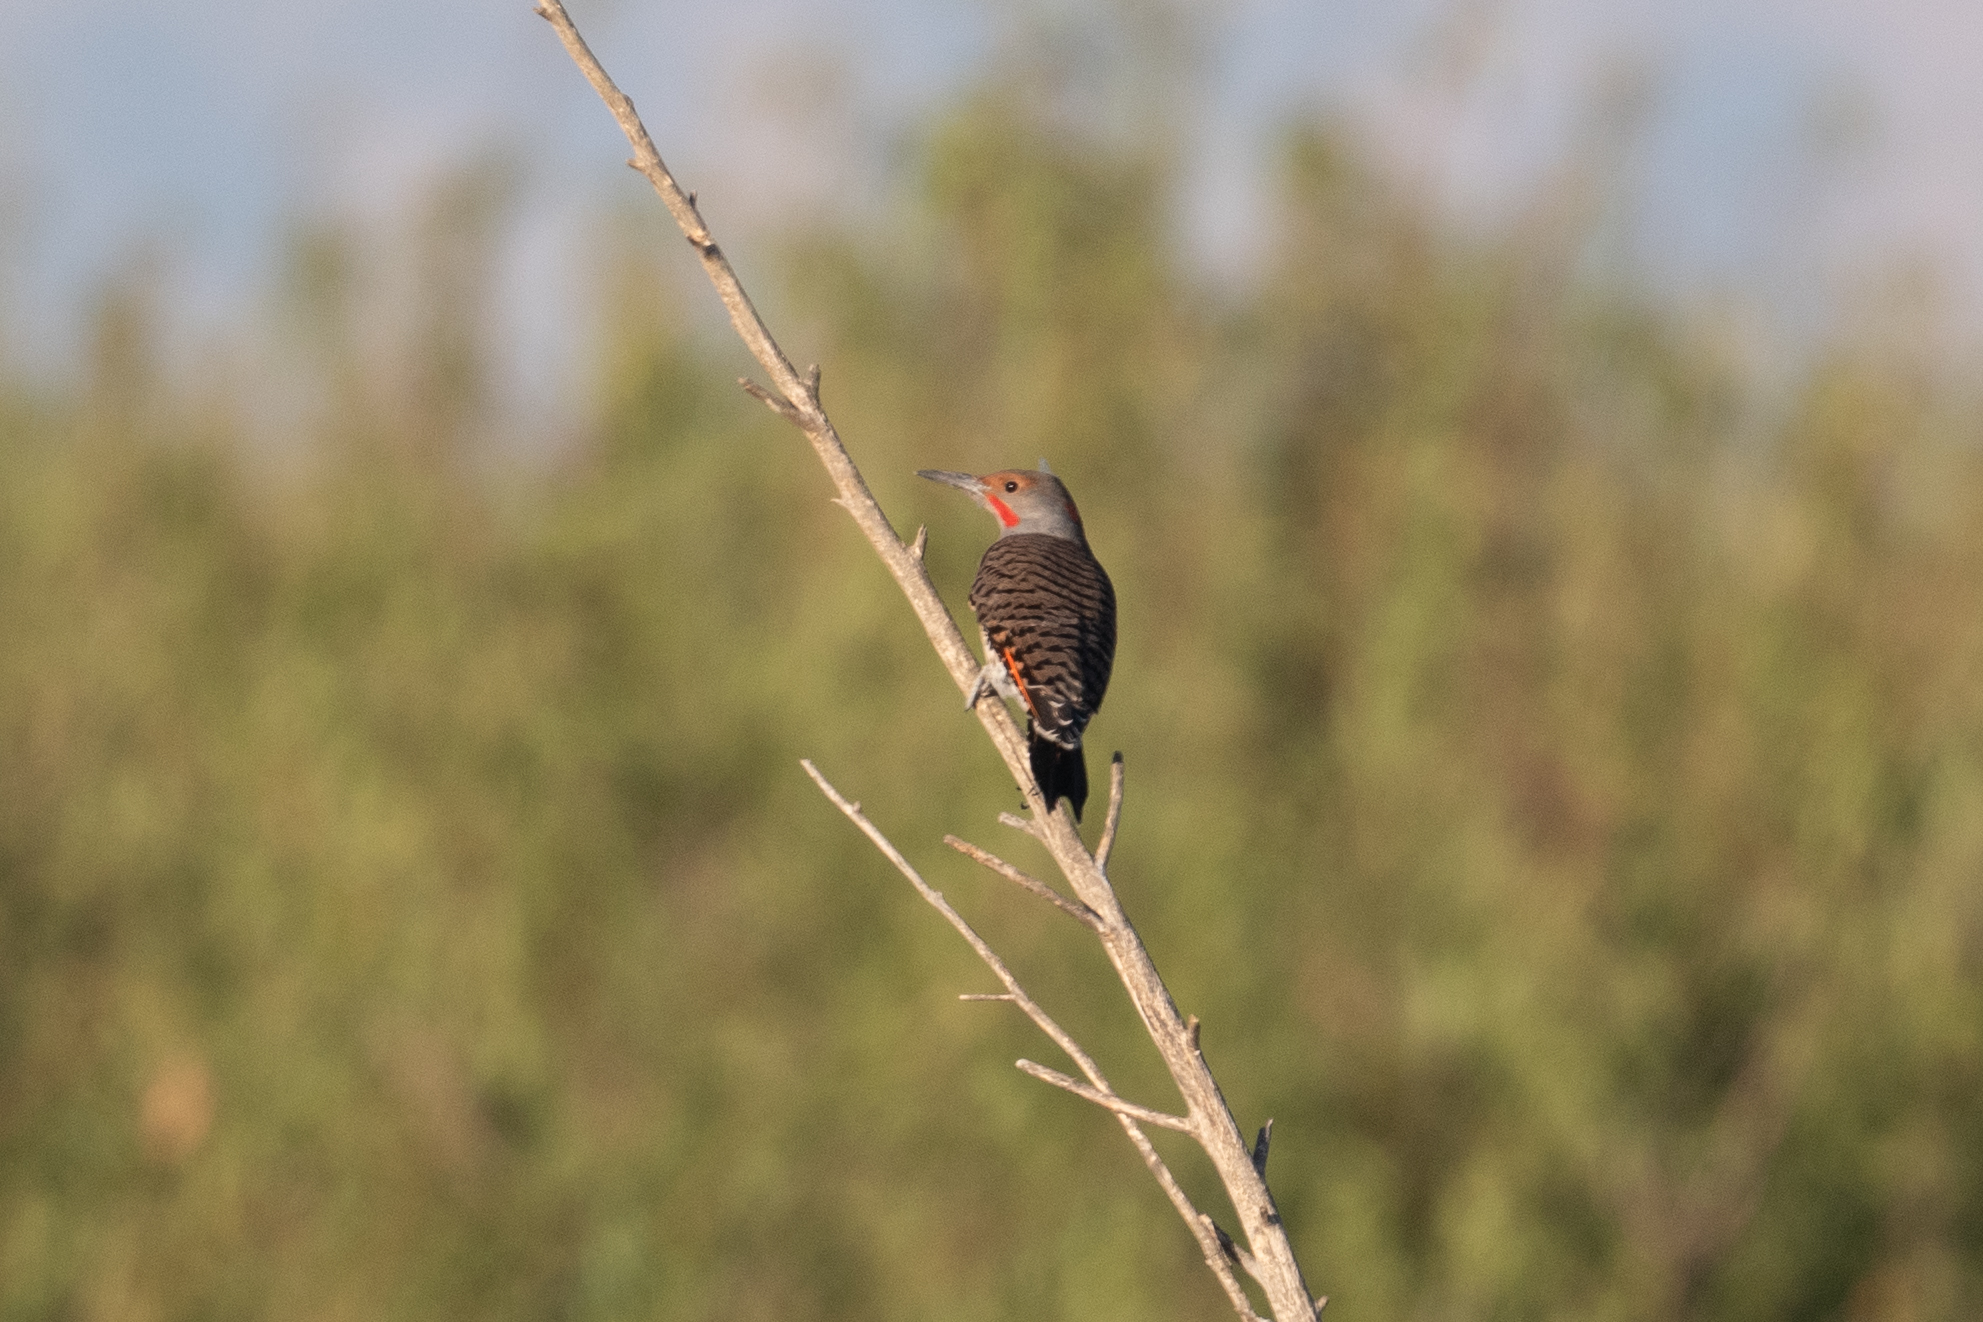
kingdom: Animalia
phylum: Chordata
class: Aves
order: Piciformes
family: Picidae
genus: Colaptes
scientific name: Colaptes auratus
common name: Northern flicker
